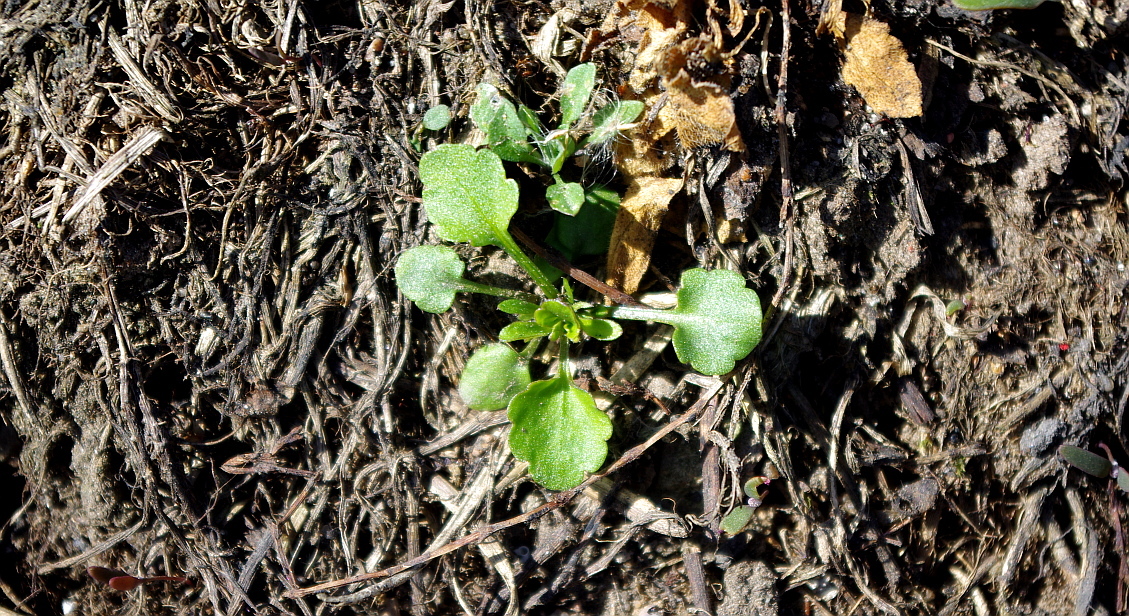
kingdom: Plantae
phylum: Tracheophyta
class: Magnoliopsida
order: Malpighiales
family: Violaceae
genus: Viola
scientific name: Viola arvensis
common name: Field pansy
